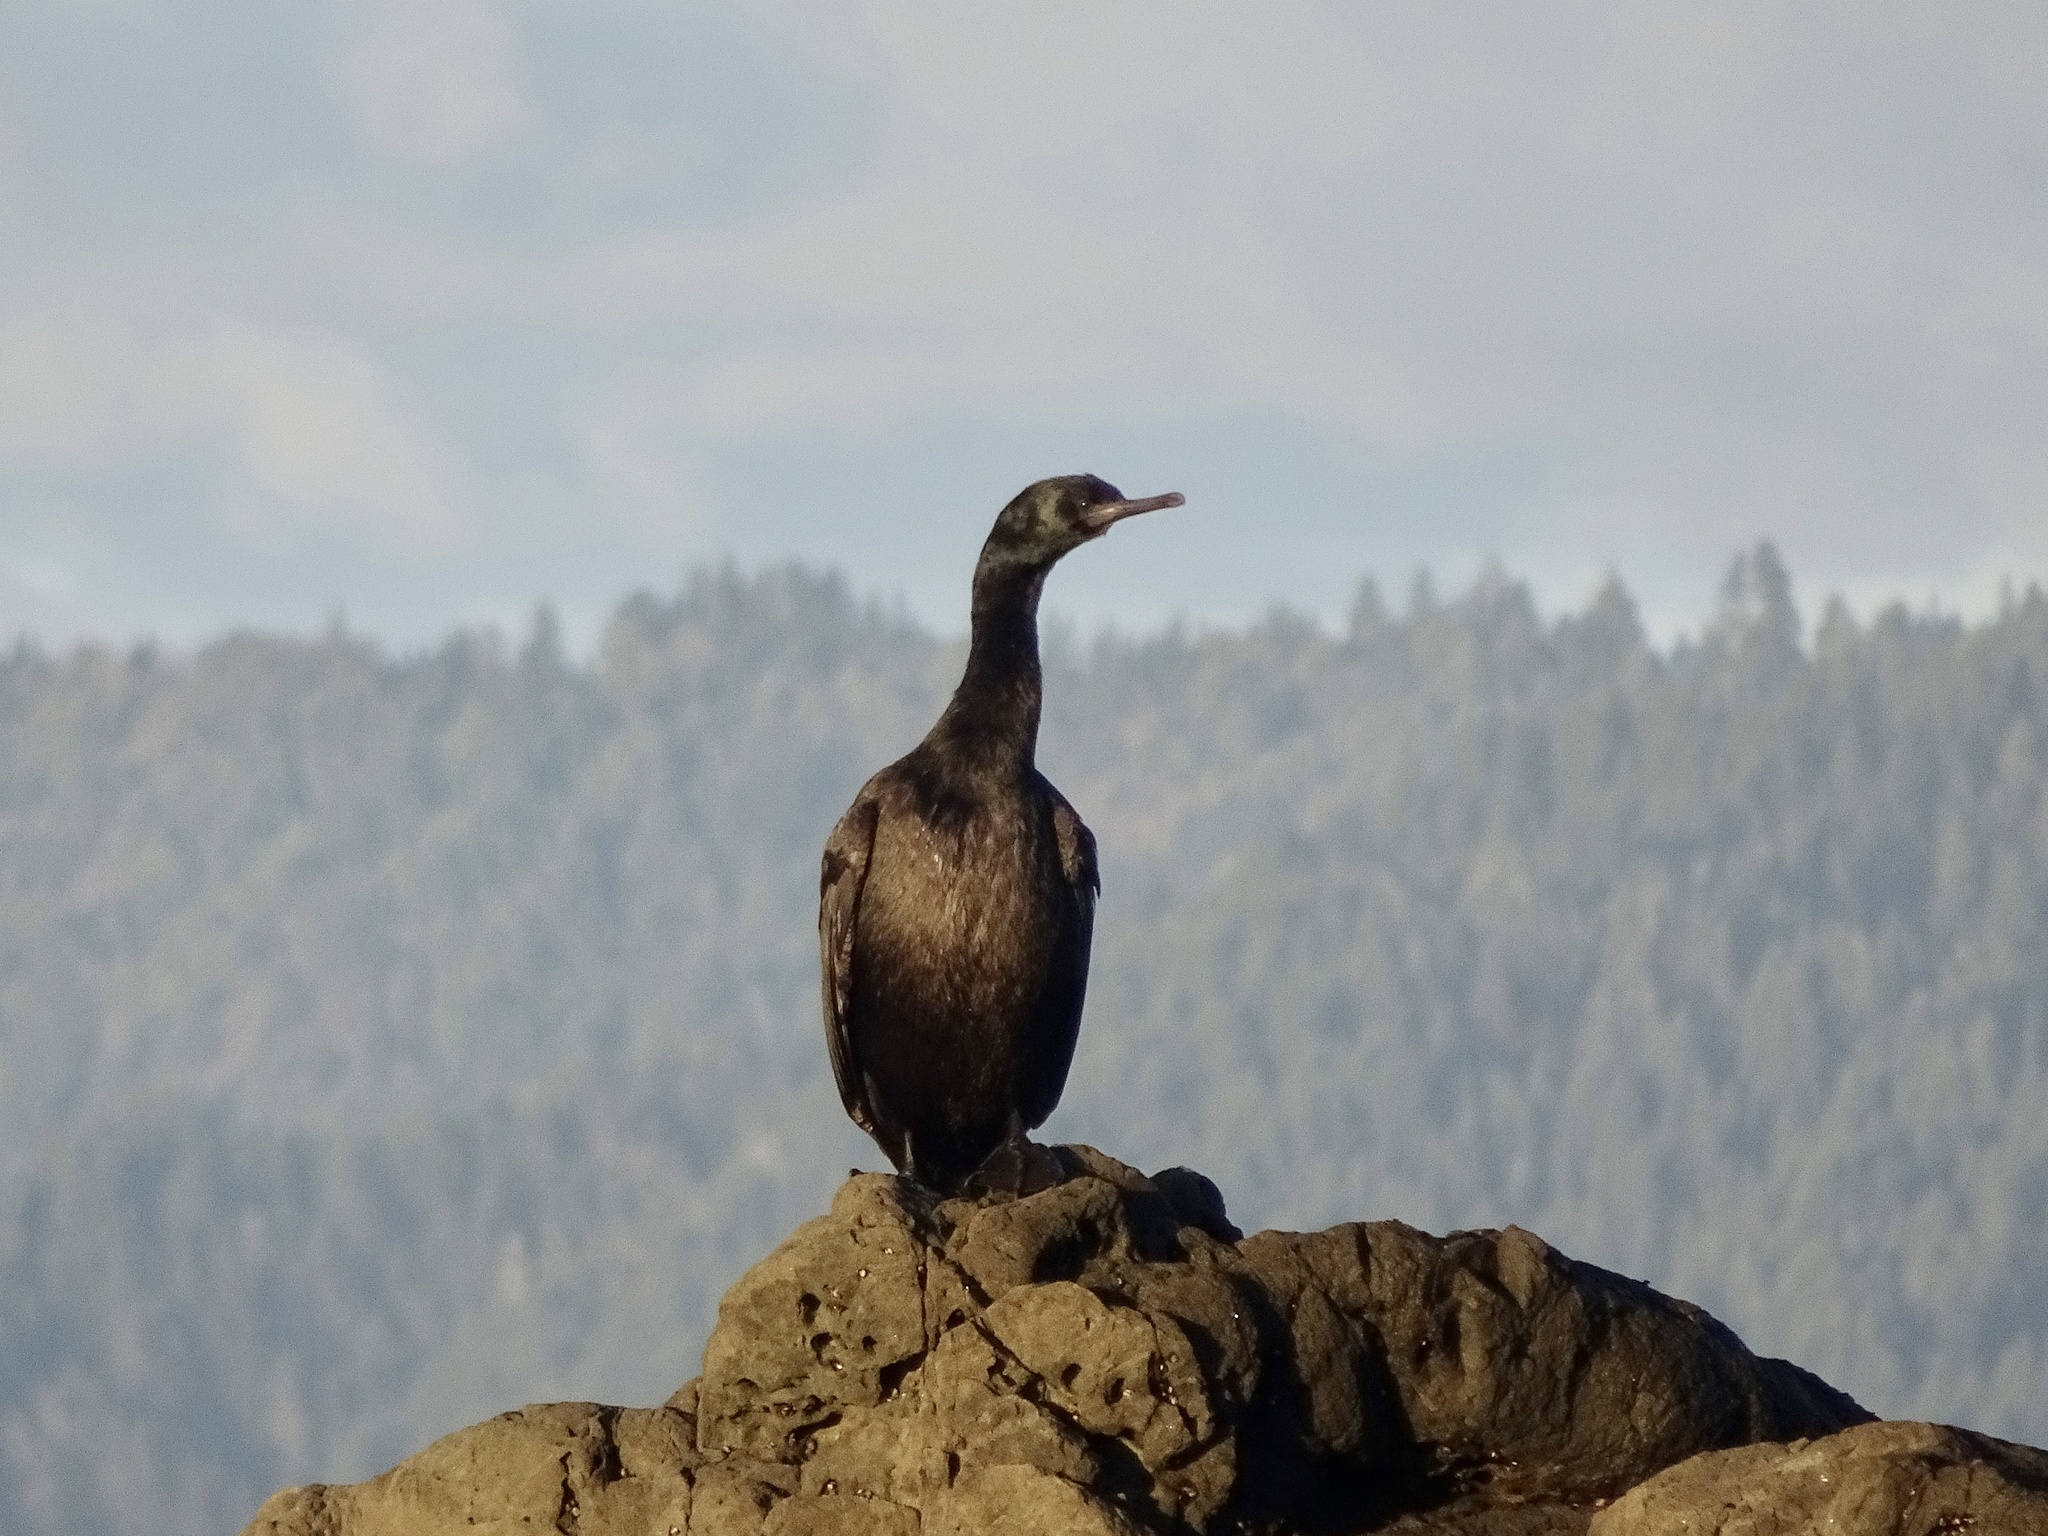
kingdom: Animalia
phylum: Chordata
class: Aves
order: Suliformes
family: Phalacrocoracidae
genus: Phalacrocorax
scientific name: Phalacrocorax pelagicus
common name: Pelagic cormorant
